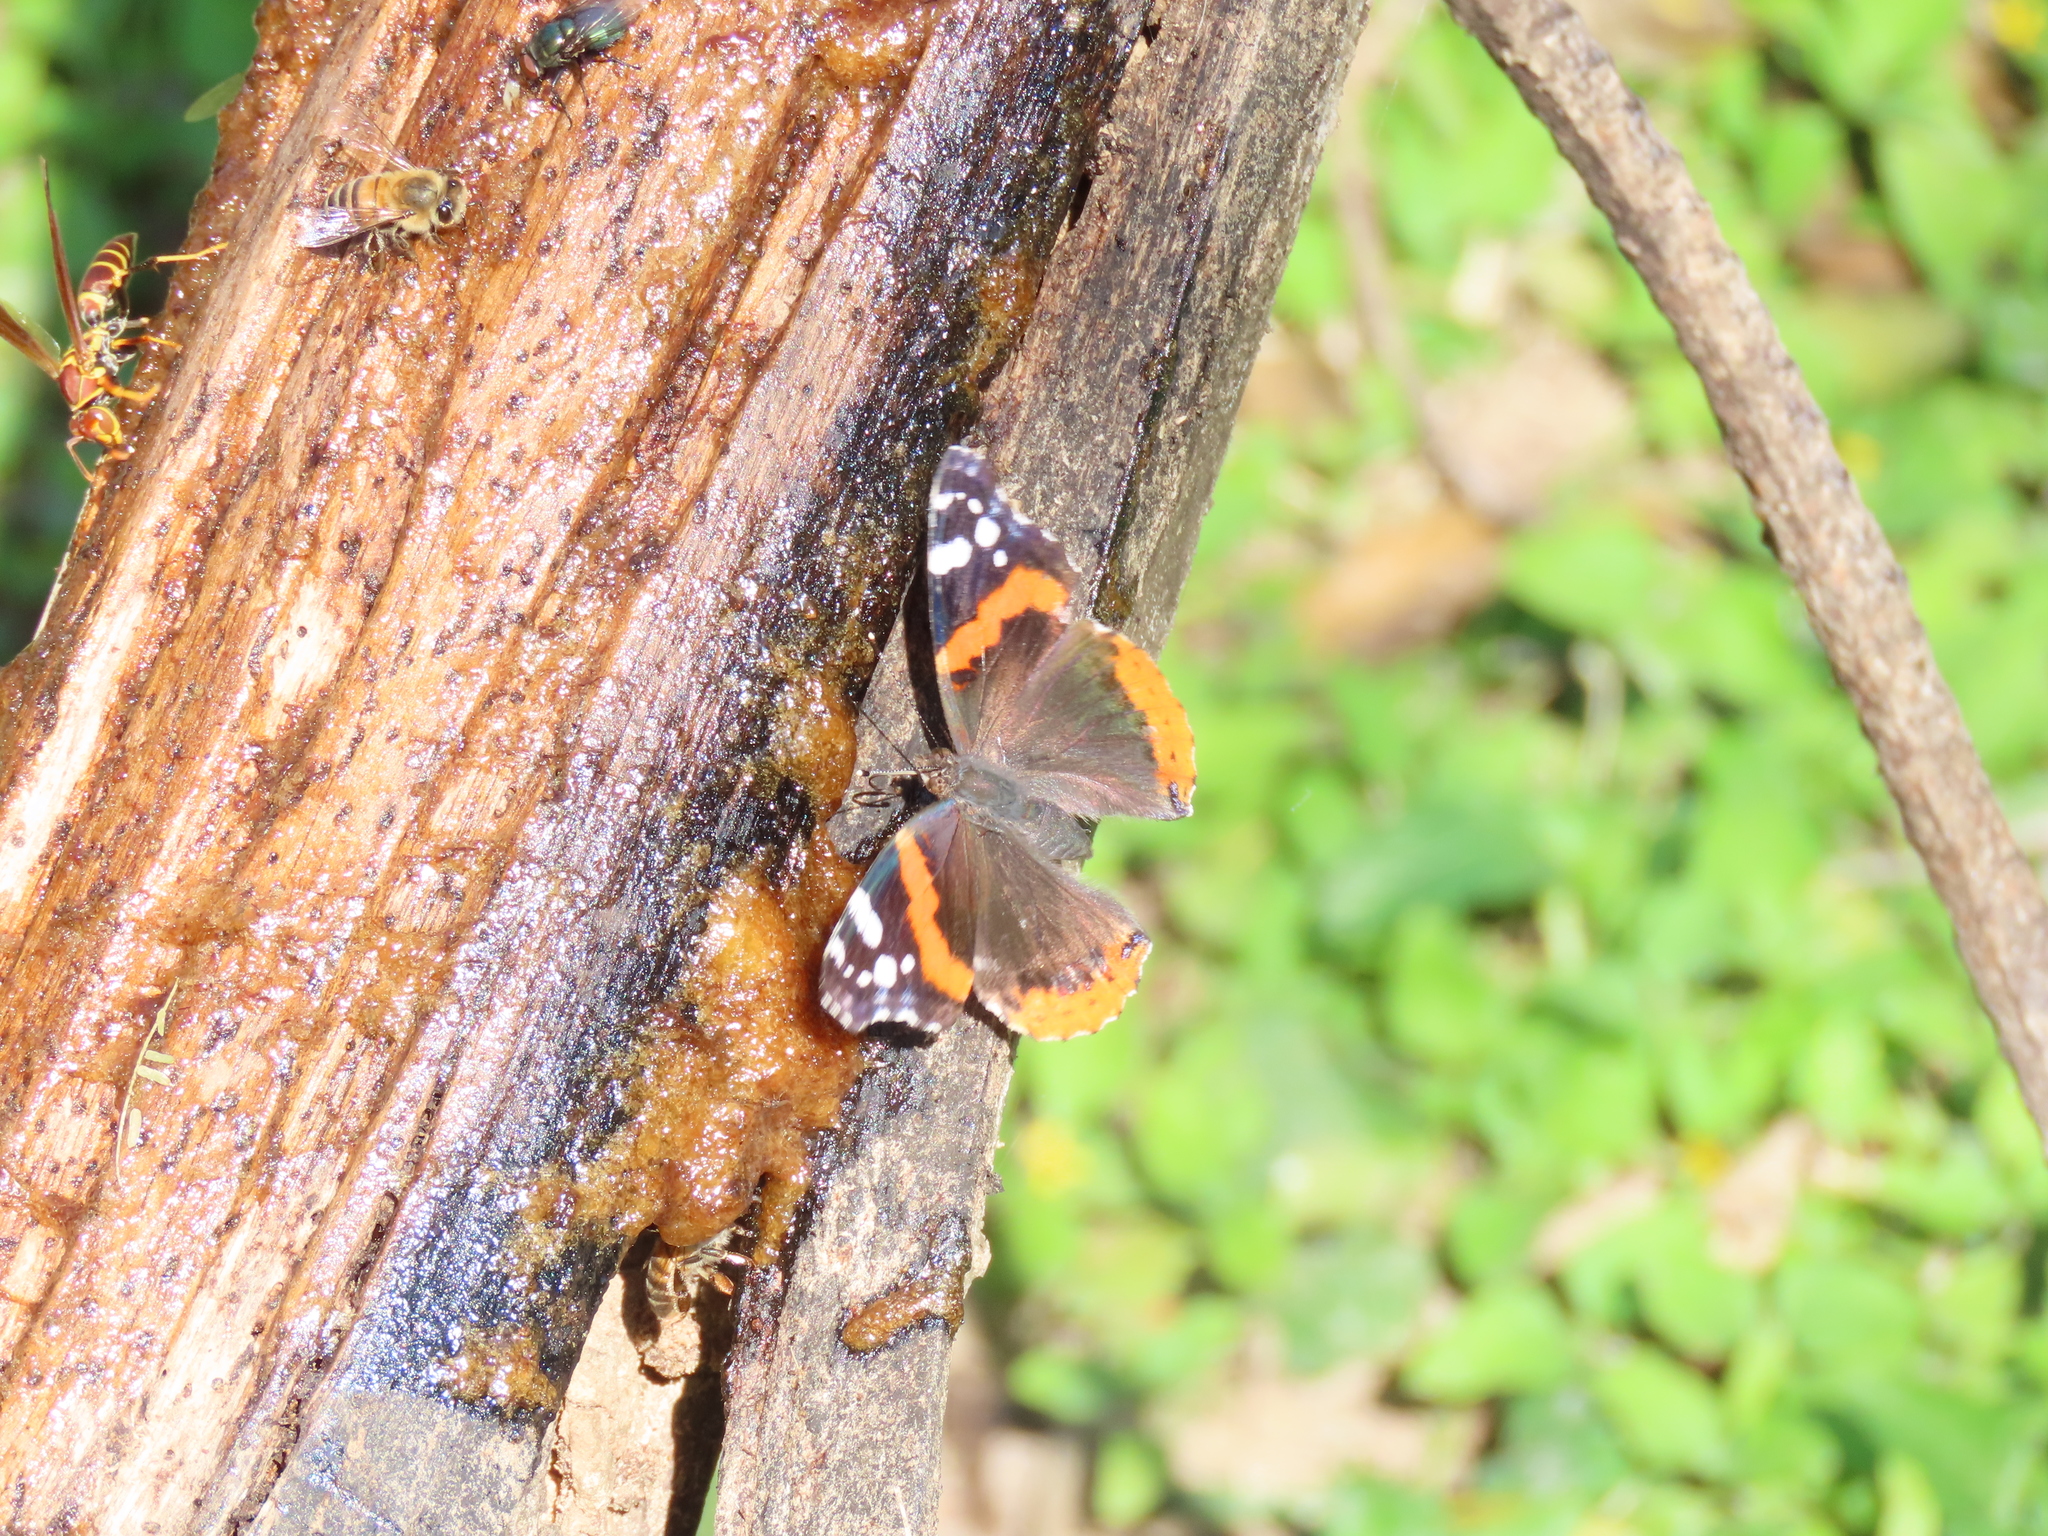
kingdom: Animalia
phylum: Arthropoda
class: Insecta
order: Lepidoptera
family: Nymphalidae
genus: Vanessa
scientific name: Vanessa atalanta
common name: Red admiral
